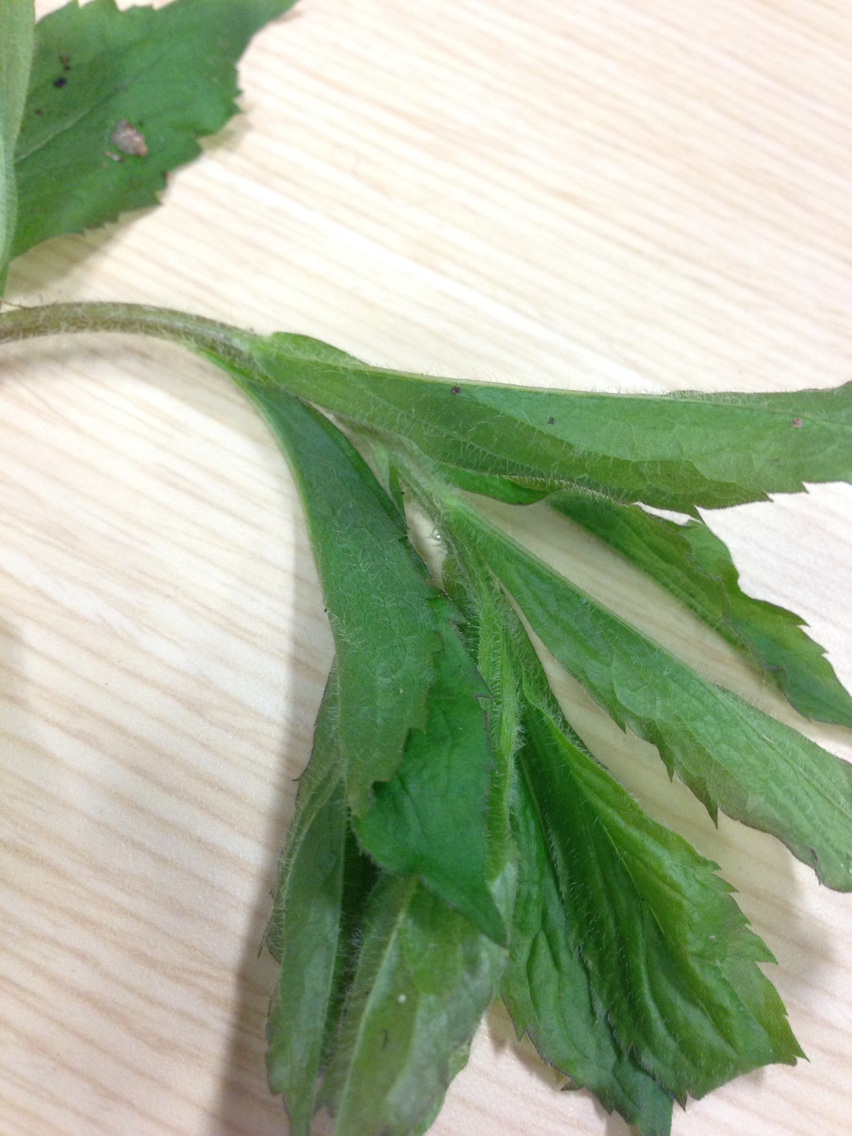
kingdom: Plantae
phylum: Tracheophyta
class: Magnoliopsida
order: Asterales
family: Asteraceae
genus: Solidago
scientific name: Solidago rugosa
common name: Rough-stemmed goldenrod
